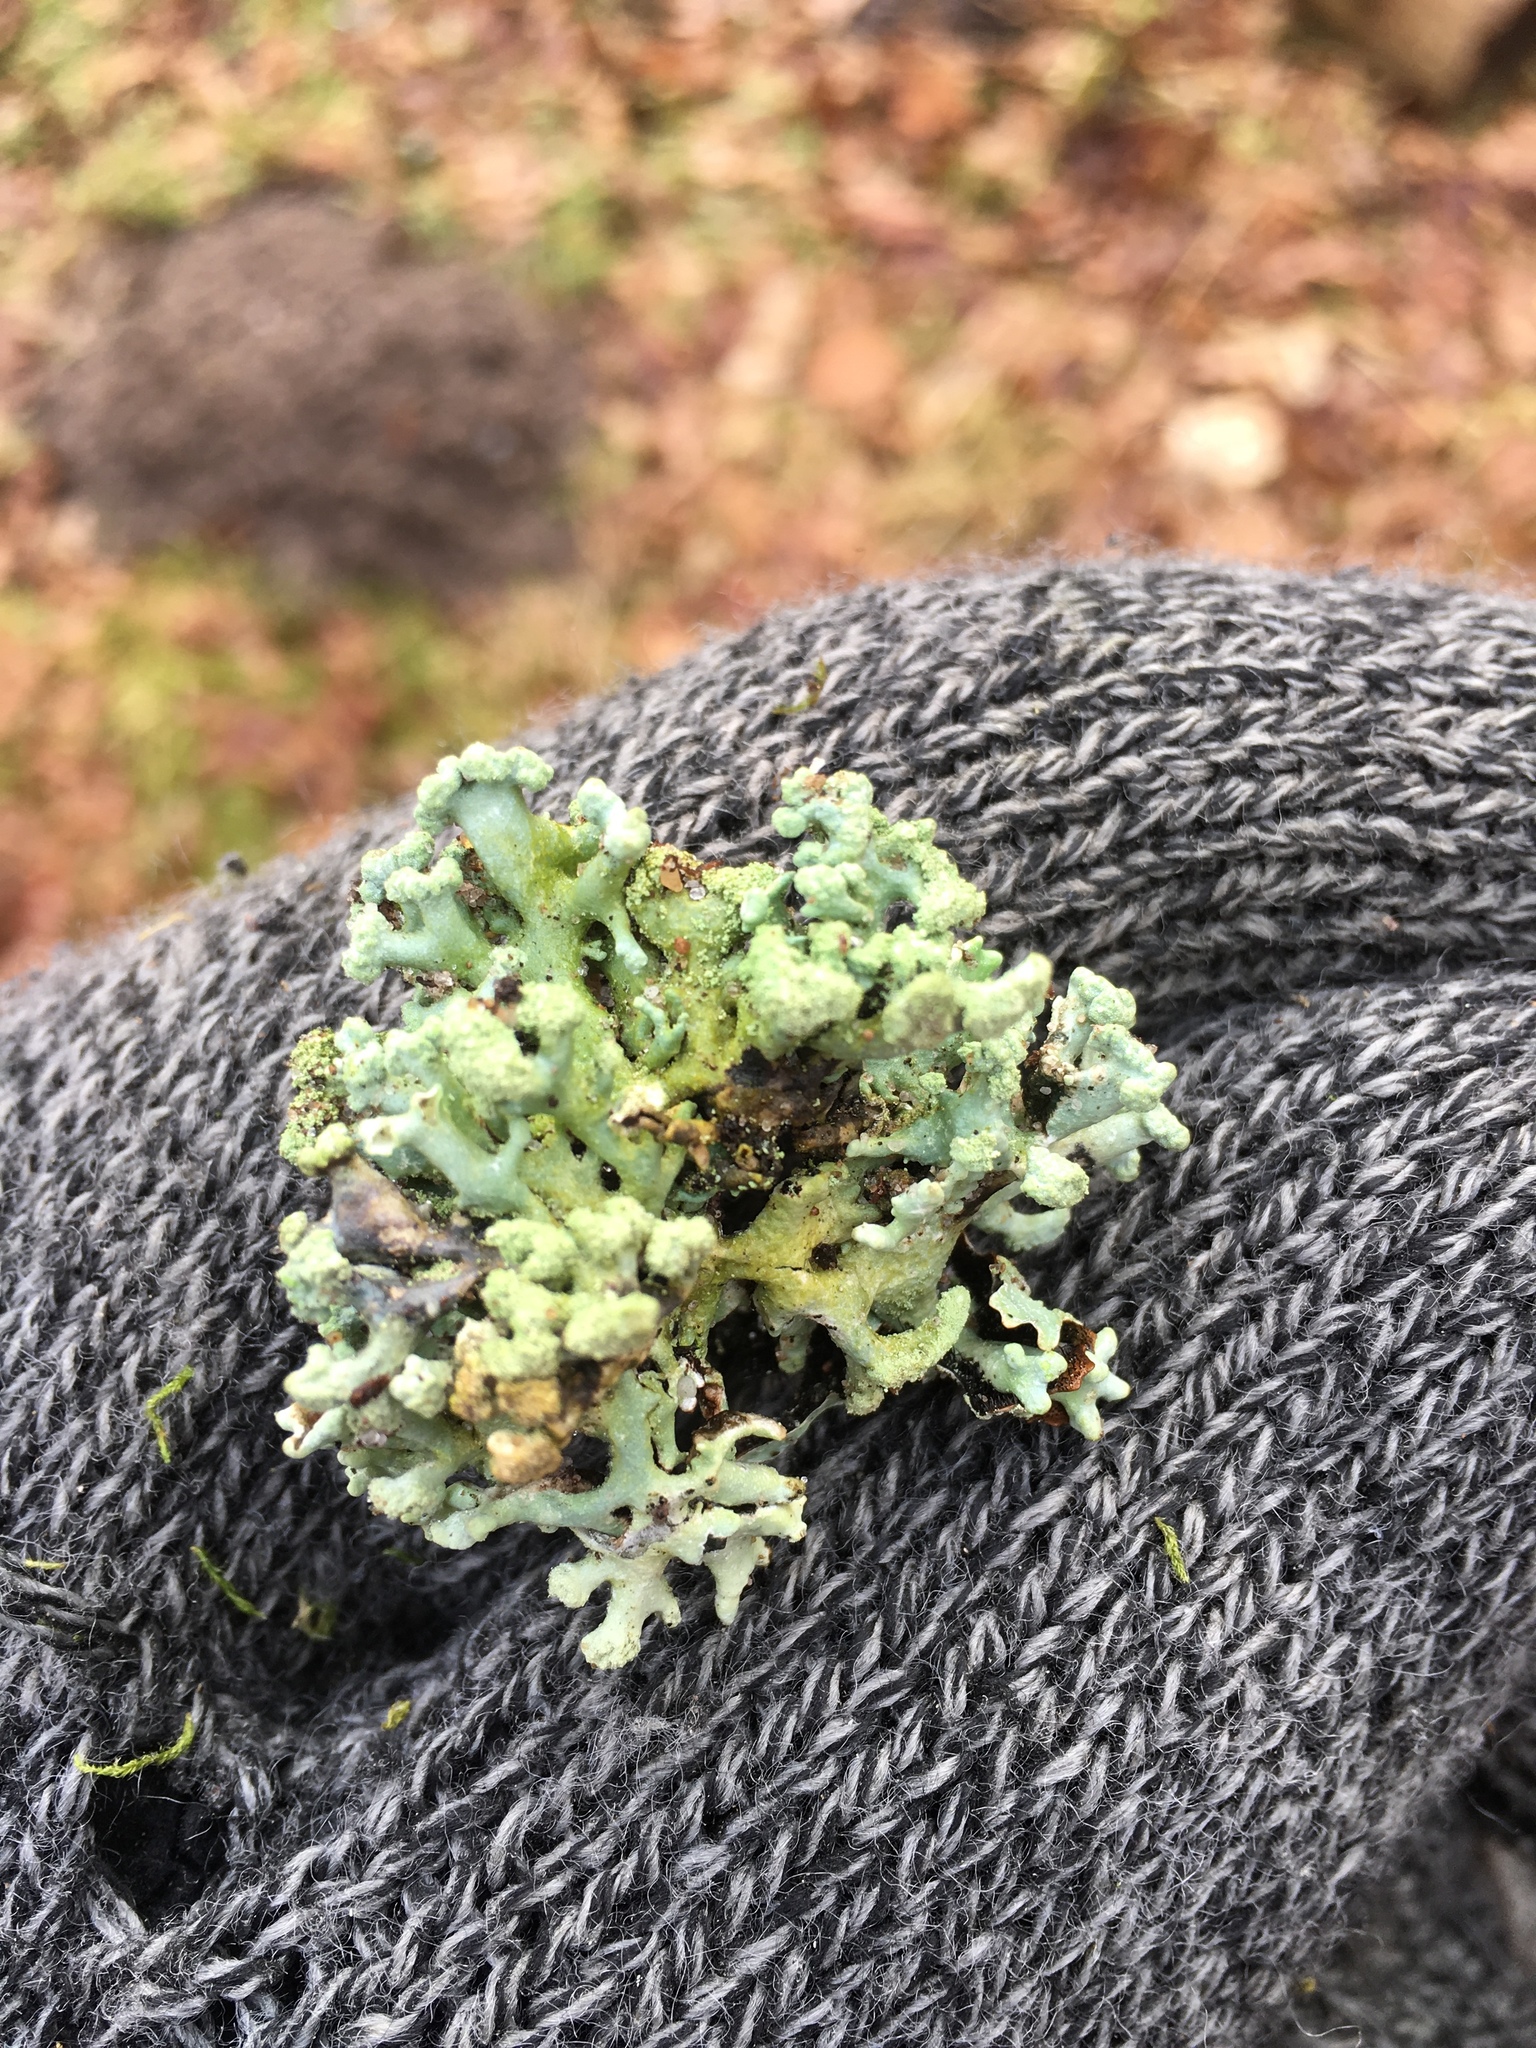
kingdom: Fungi
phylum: Ascomycota
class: Lecanoromycetes
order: Lecanorales
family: Parmeliaceae
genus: Hypogymnia
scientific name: Hypogymnia tubulosa
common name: Powder-headed tube lichen
